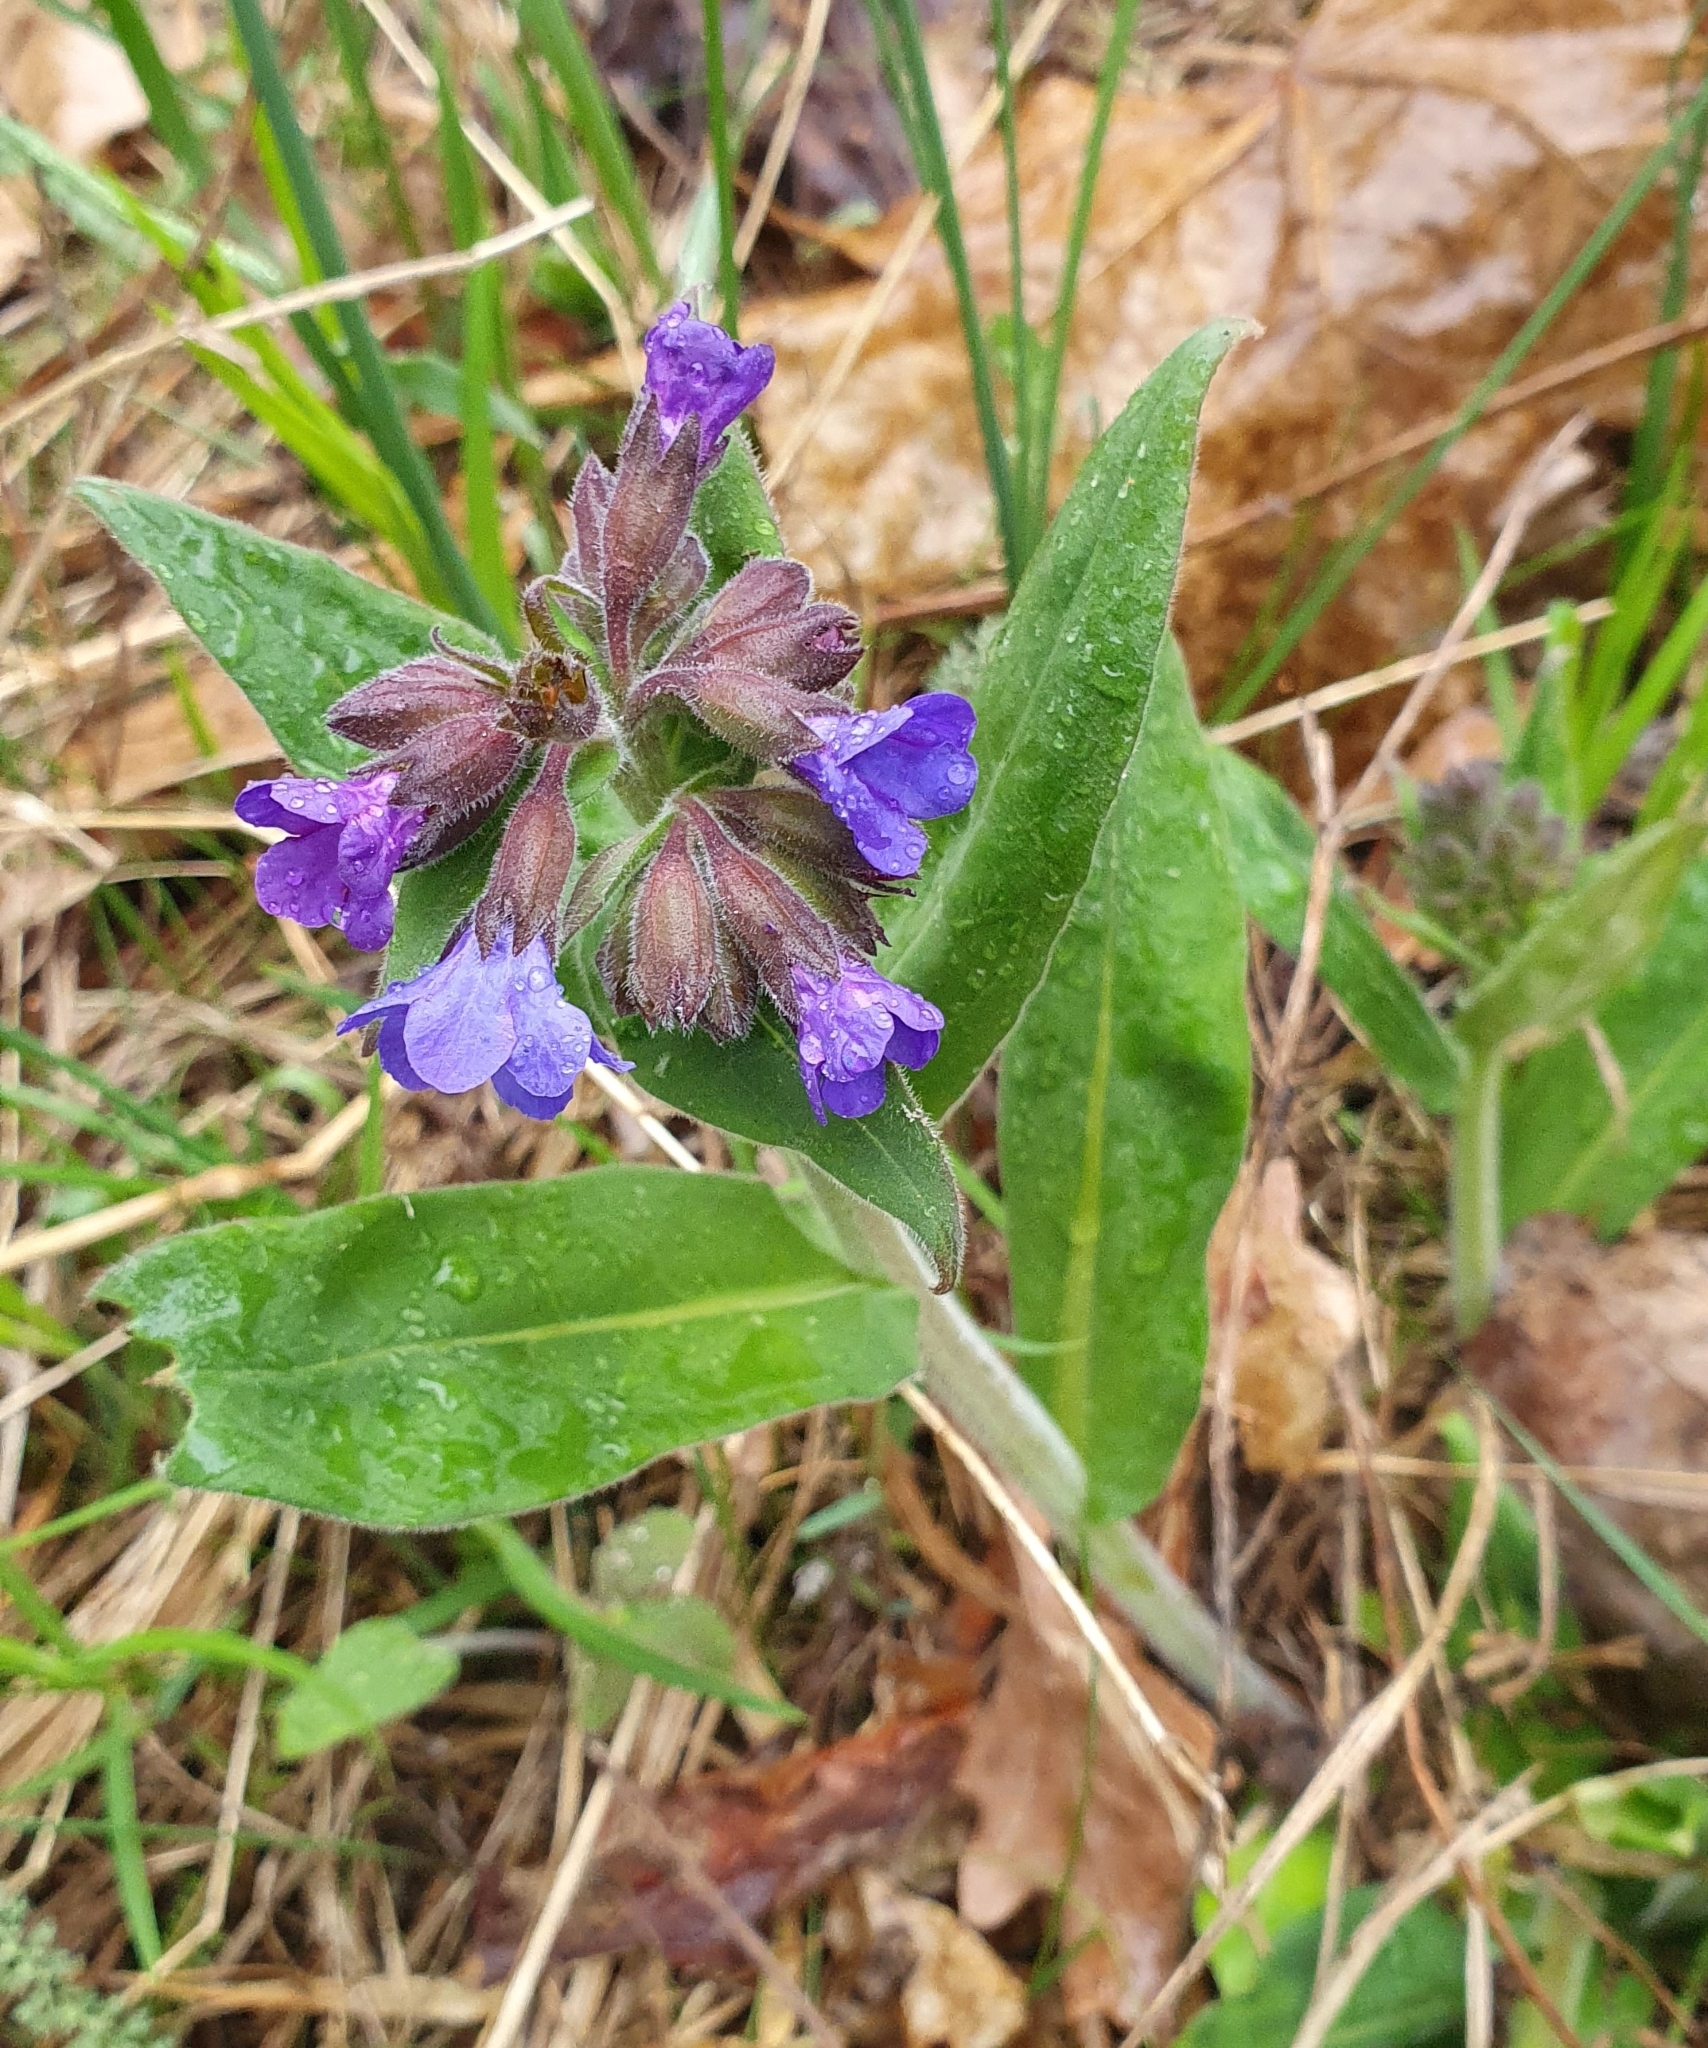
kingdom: Plantae
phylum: Tracheophyta
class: Magnoliopsida
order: Boraginales
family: Boraginaceae
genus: Pulmonaria
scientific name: Pulmonaria mollis
